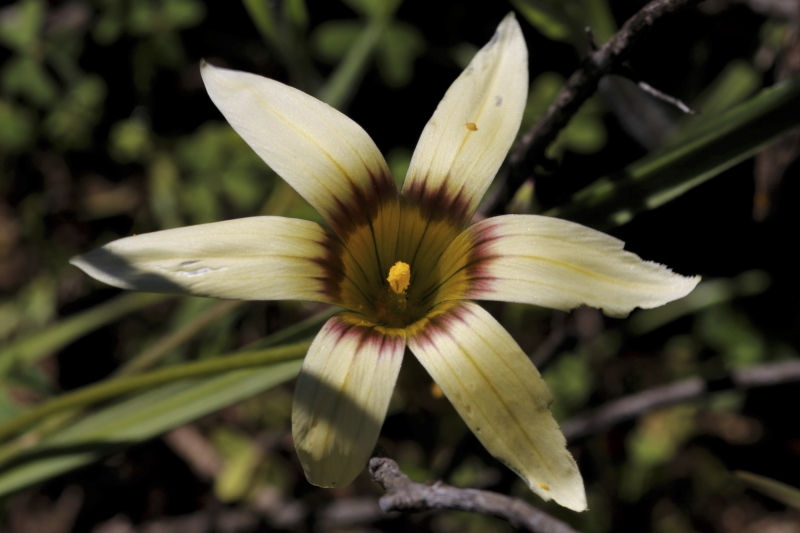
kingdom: Plantae
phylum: Tracheophyta
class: Liliopsida
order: Asparagales
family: Iridaceae
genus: Romulea
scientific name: Romulea hirta
